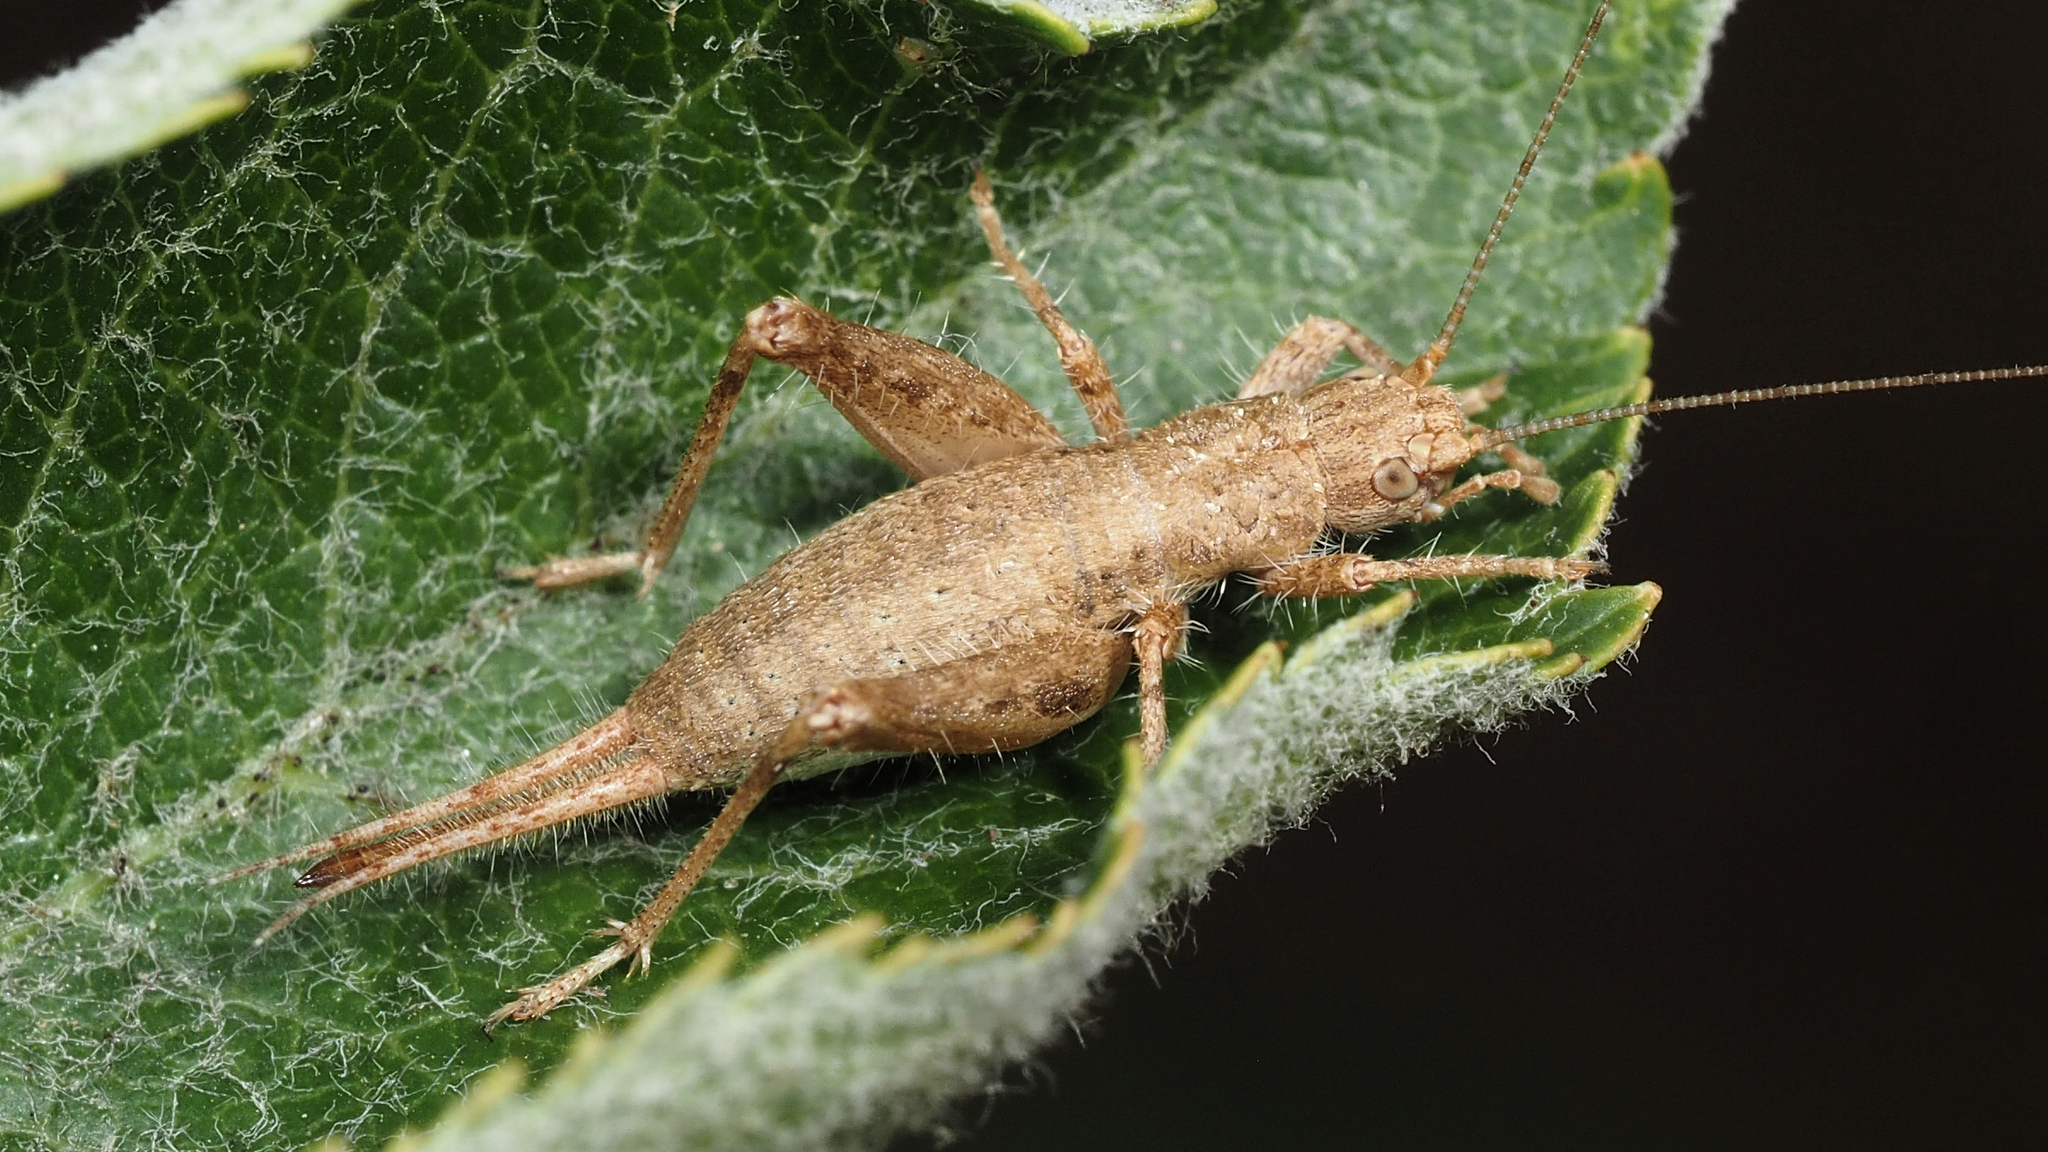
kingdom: Animalia
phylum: Arthropoda
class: Insecta
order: Orthoptera
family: Mogoplistidae
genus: Arachnocephalus
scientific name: Arachnocephalus vestitus
